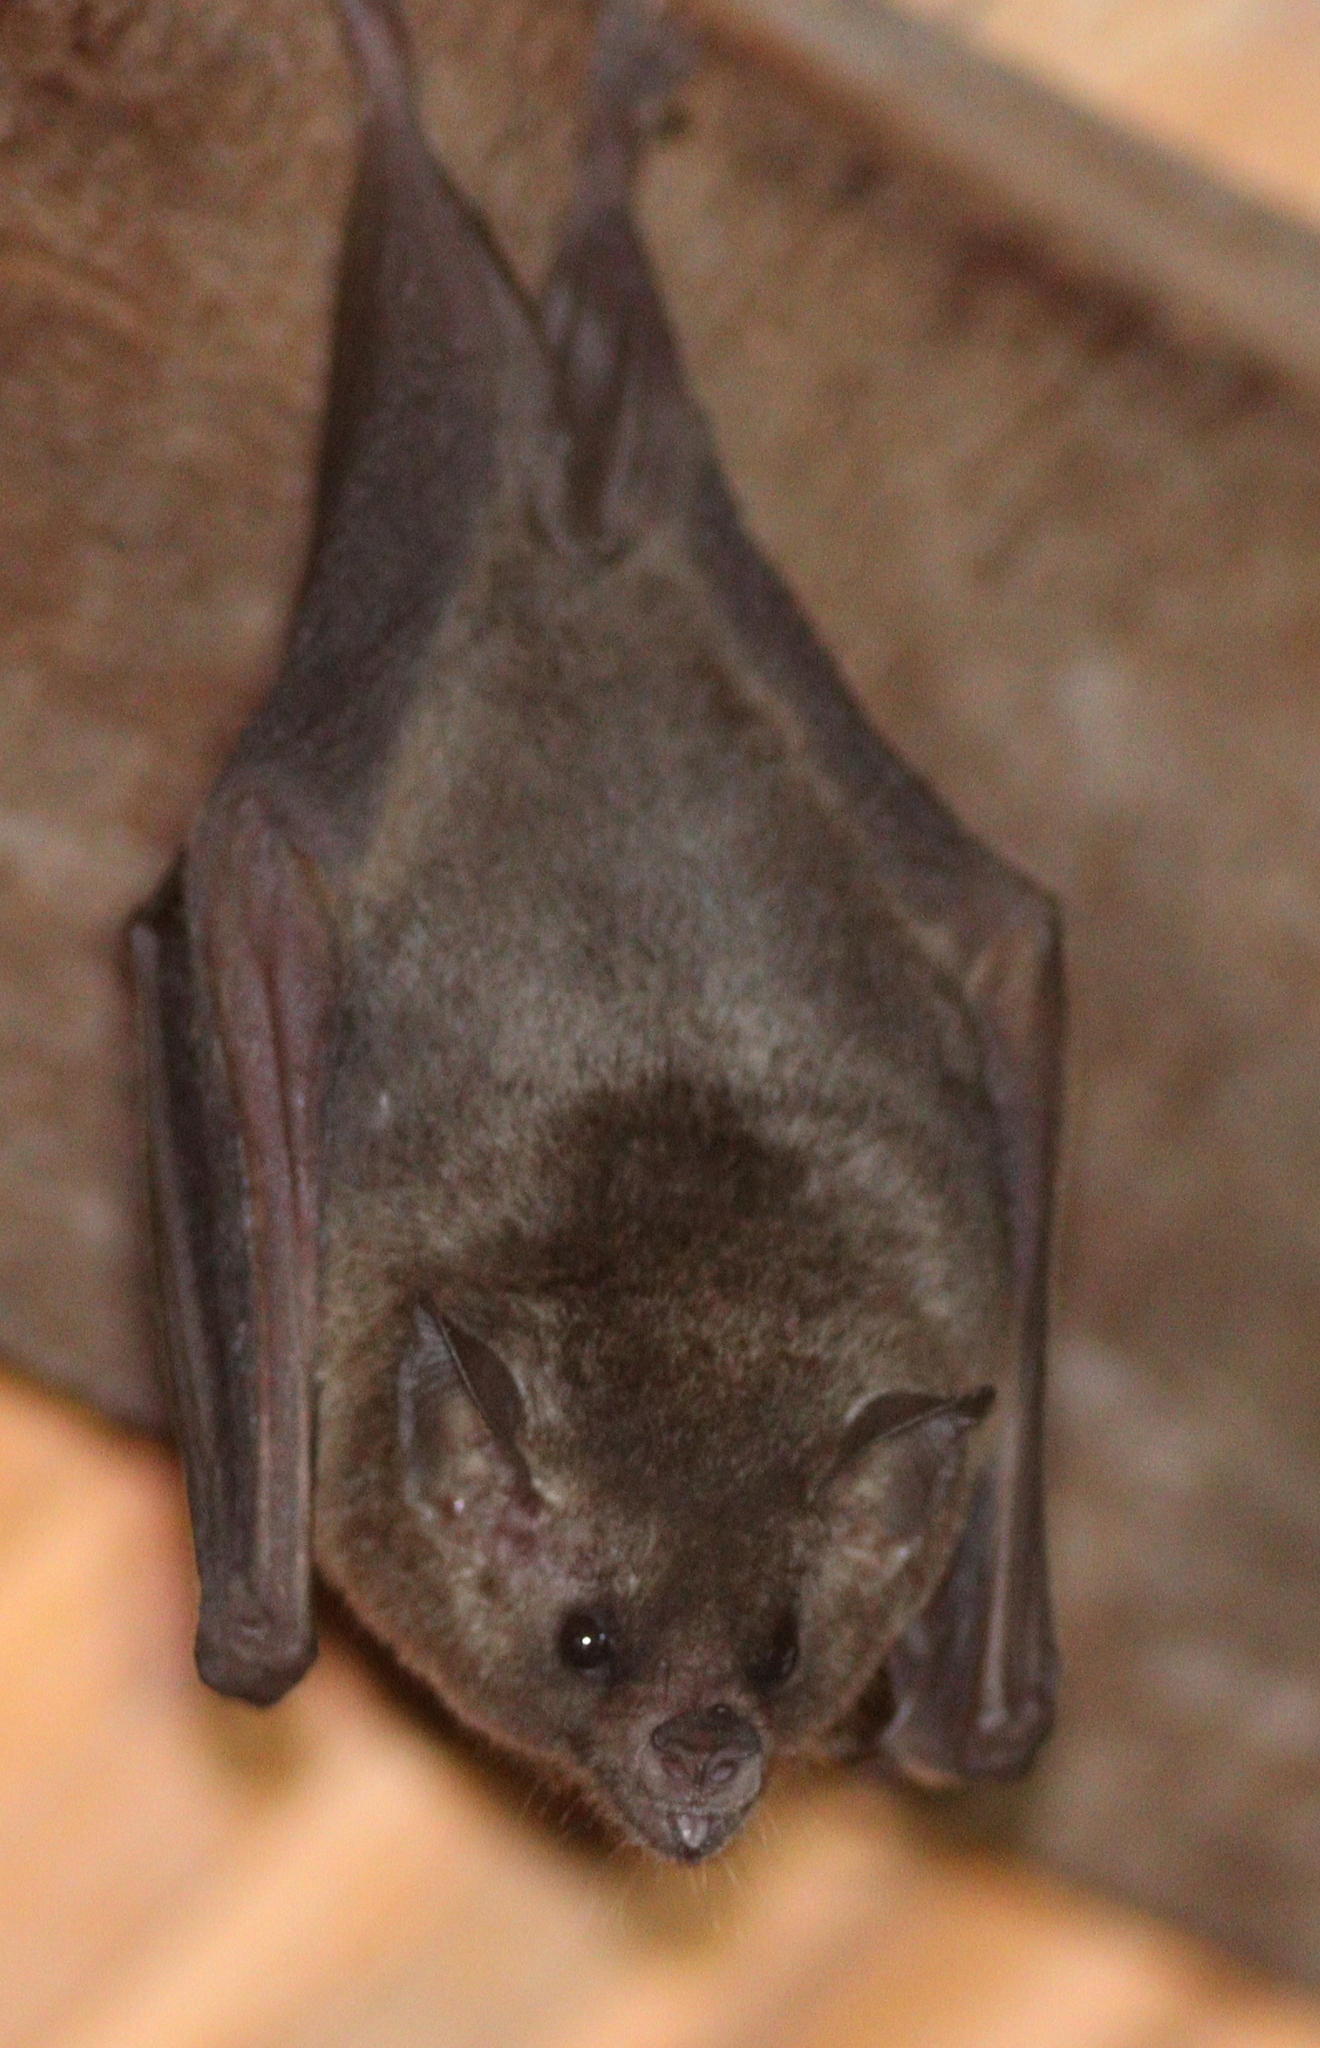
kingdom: Animalia
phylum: Chordata
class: Mammalia
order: Chiroptera
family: Phyllostomidae
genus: Glossophaga
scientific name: Glossophaga soricina
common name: Pallas's long-tongued bat
